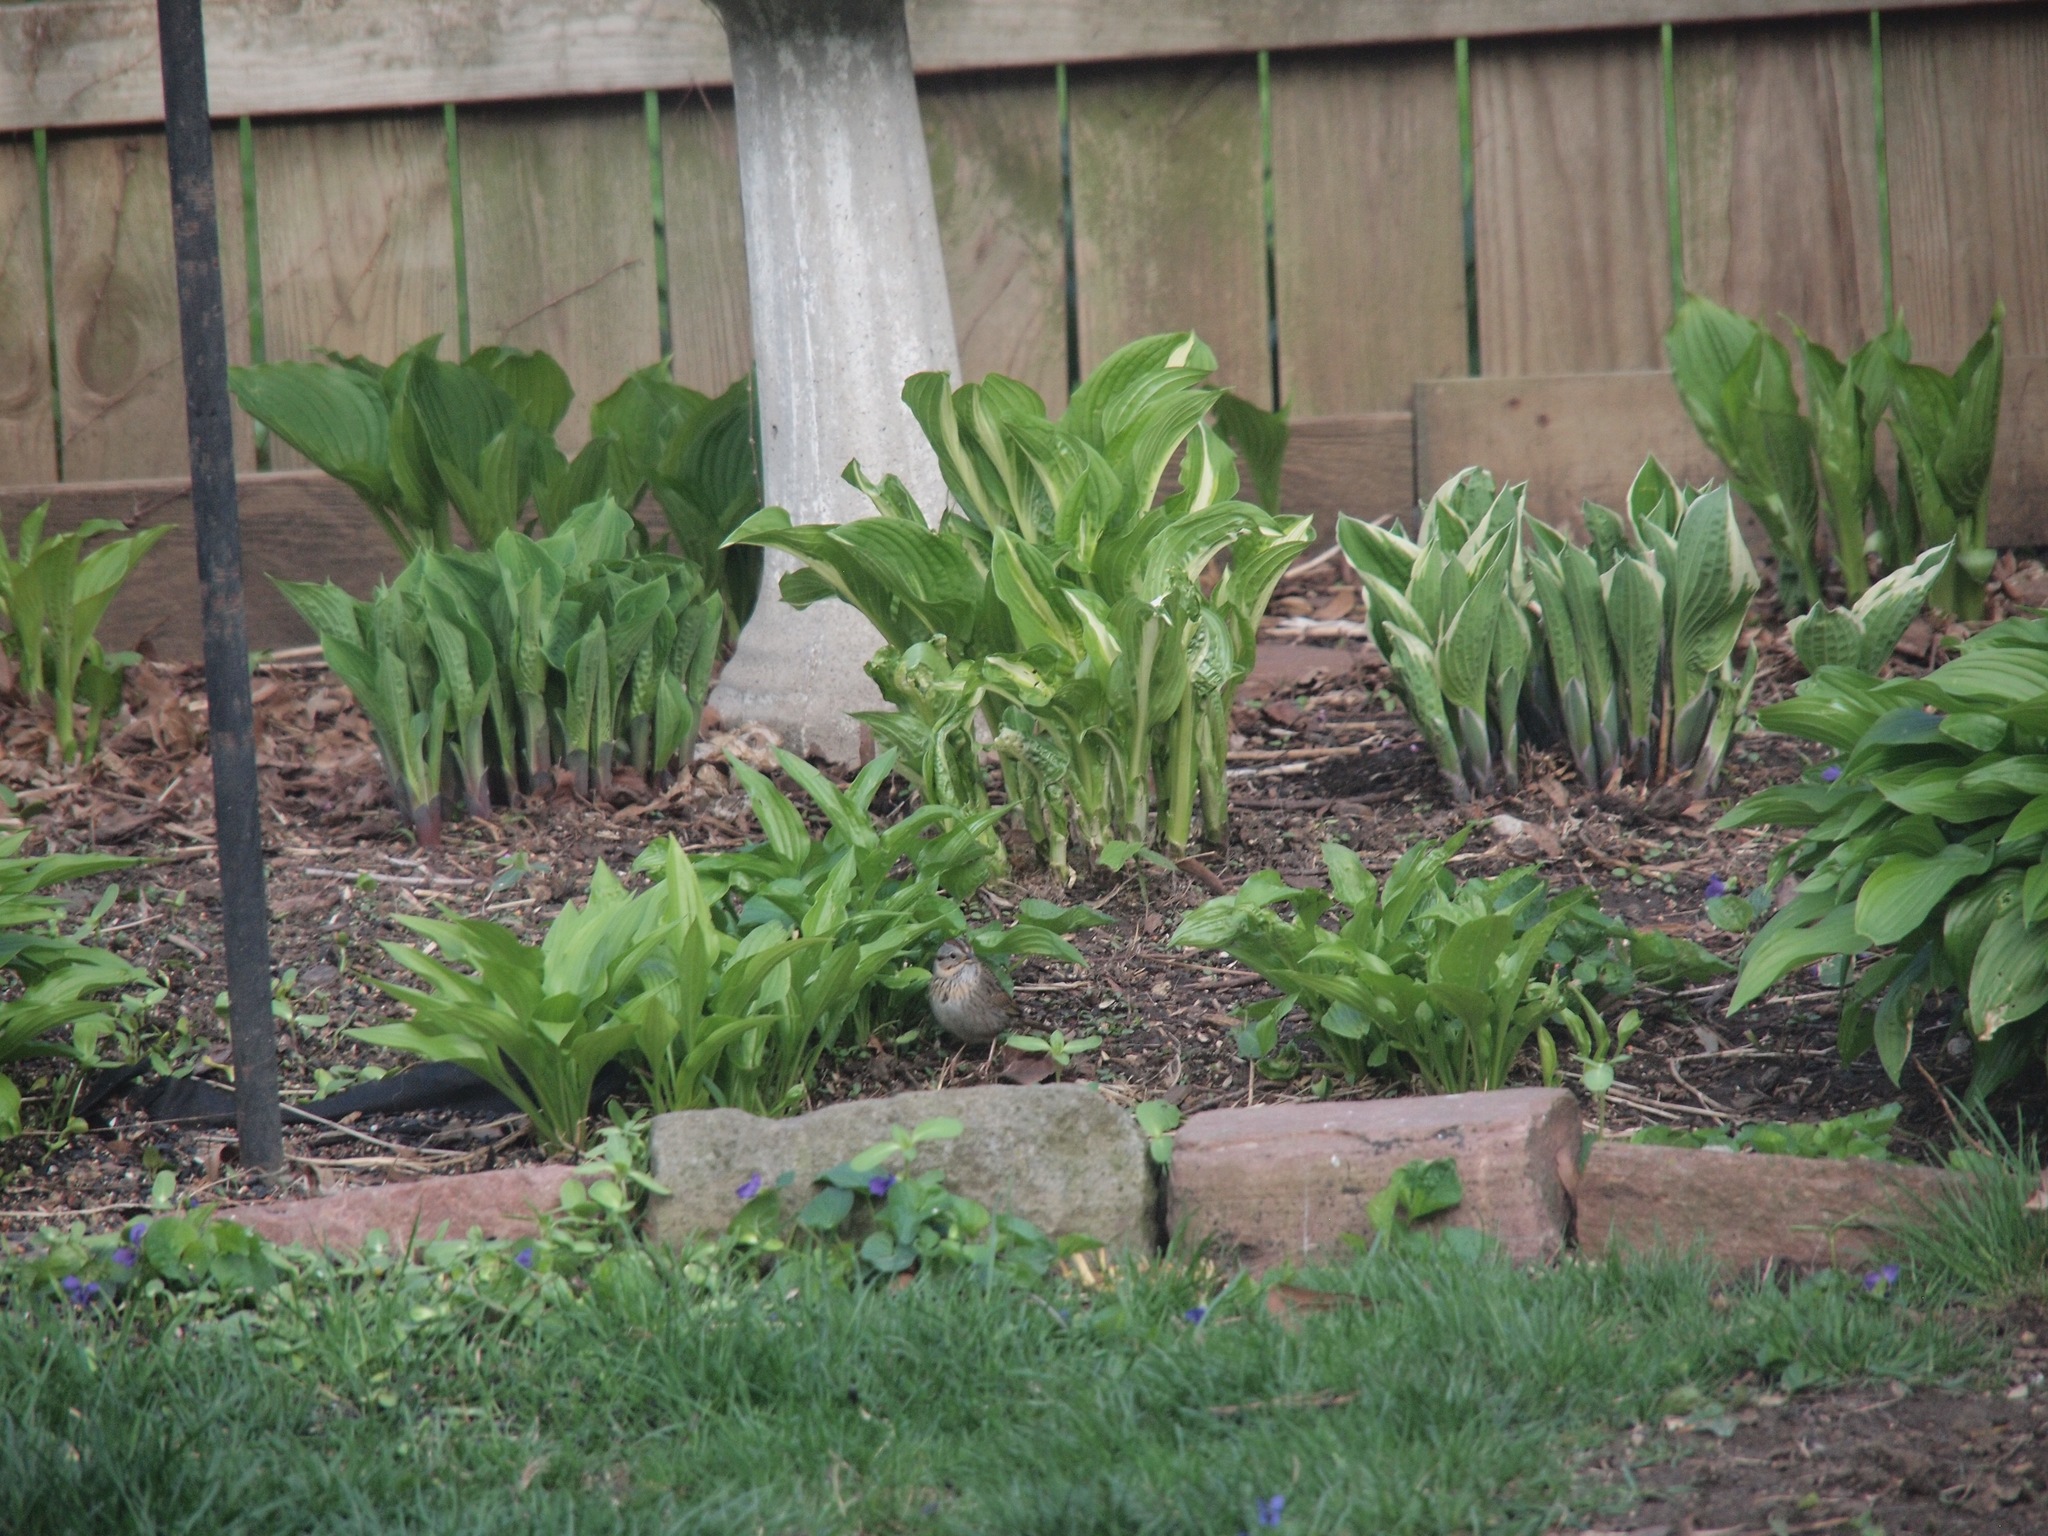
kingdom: Animalia
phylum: Chordata
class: Aves
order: Passeriformes
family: Passerellidae
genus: Melospiza
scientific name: Melospiza lincolnii
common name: Lincoln's sparrow
